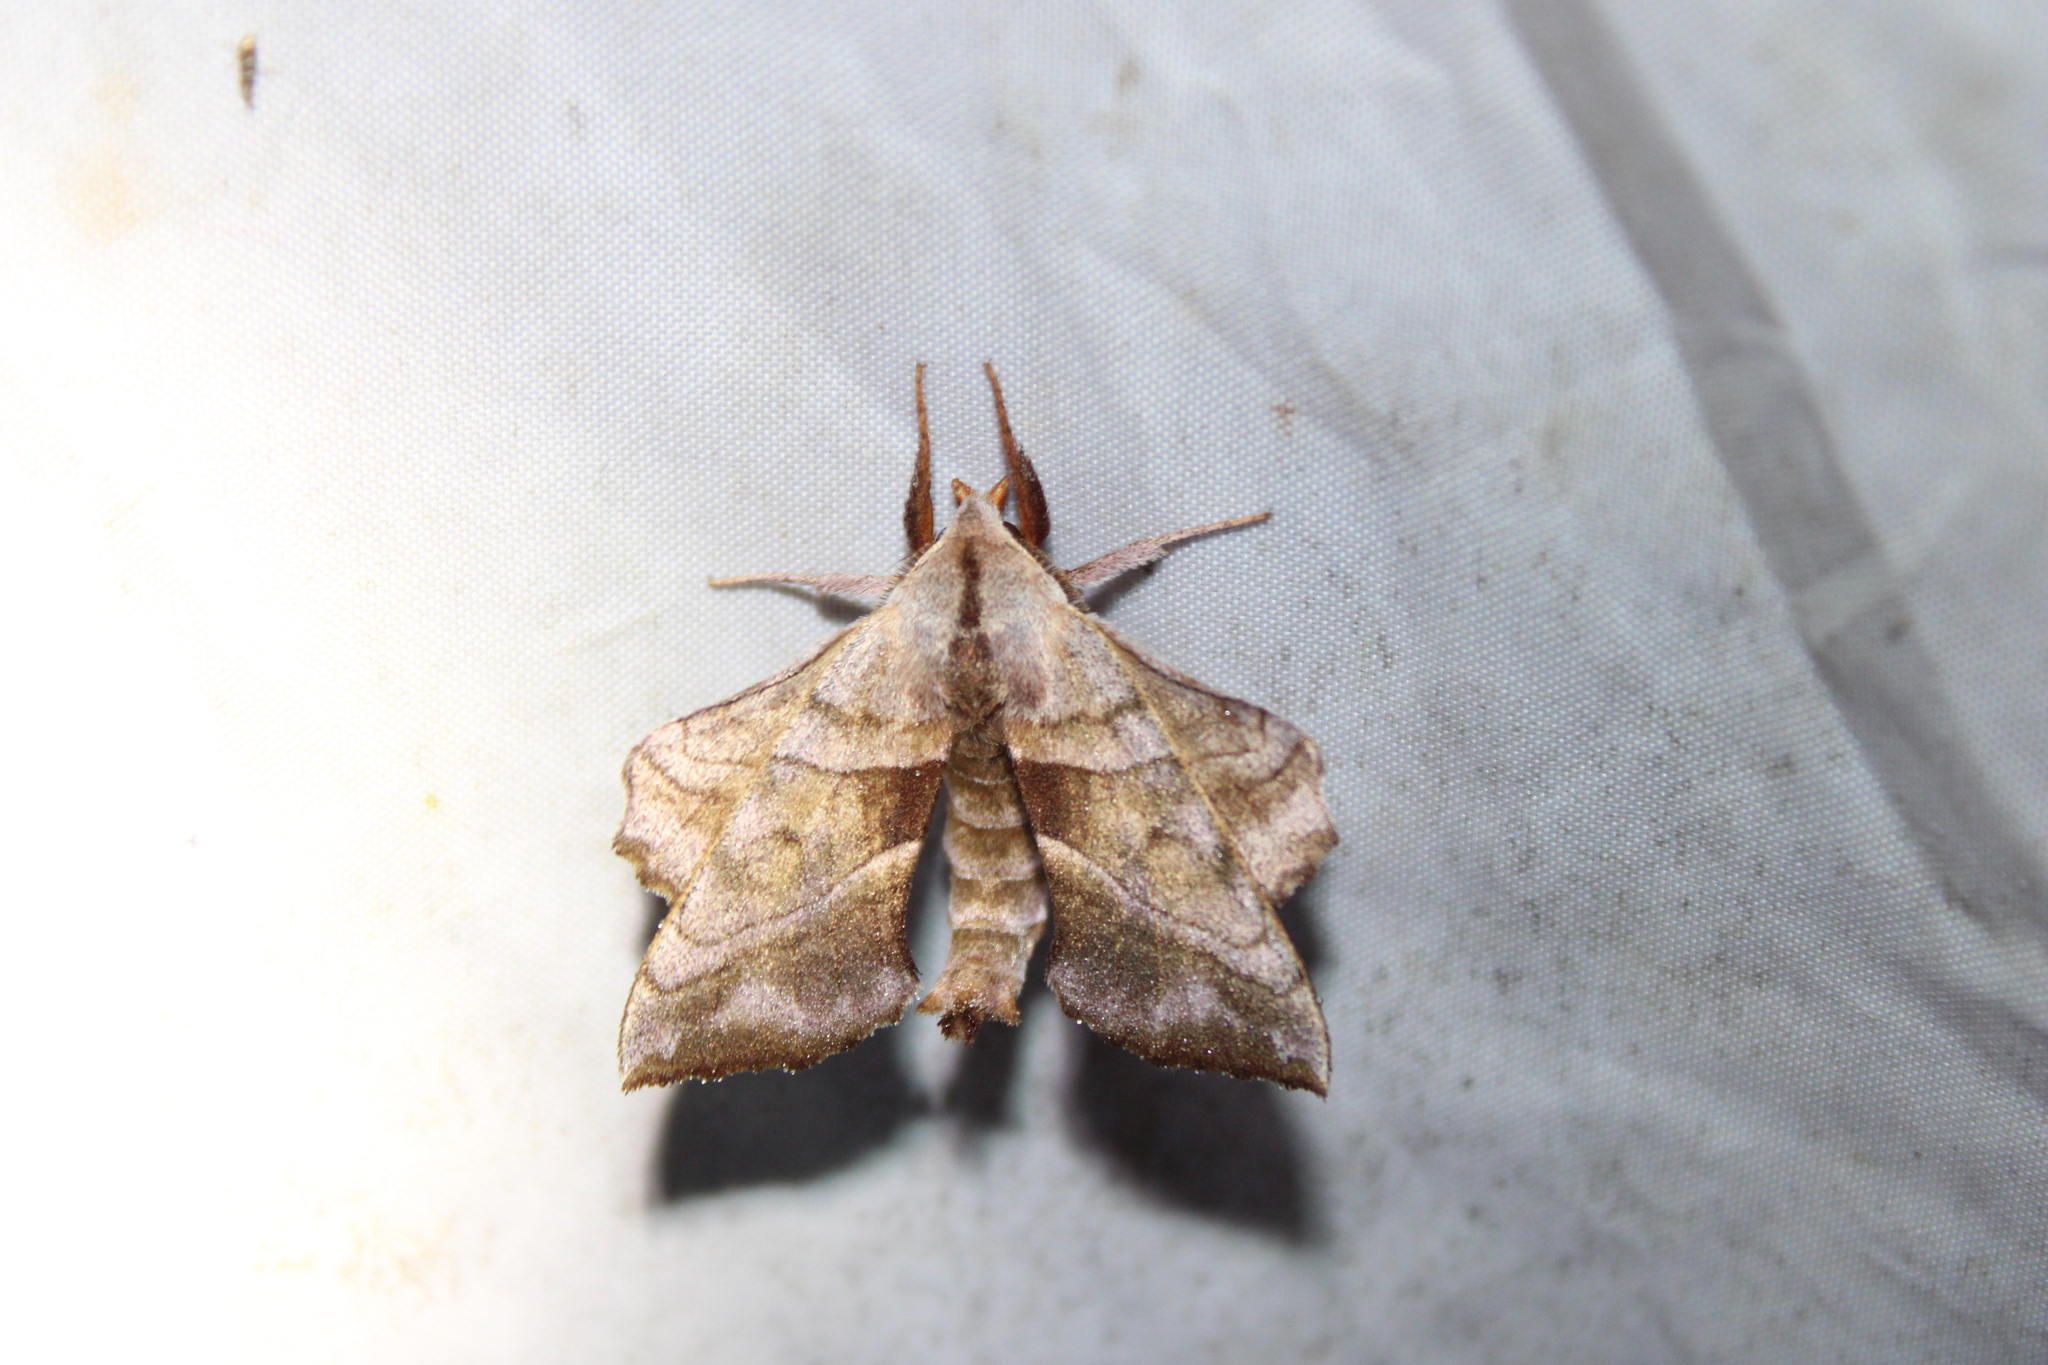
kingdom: Animalia
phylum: Arthropoda
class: Insecta
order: Lepidoptera
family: Sphingidae
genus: Amorpha
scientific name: Amorpha juglandis
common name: Walnut sphinx
